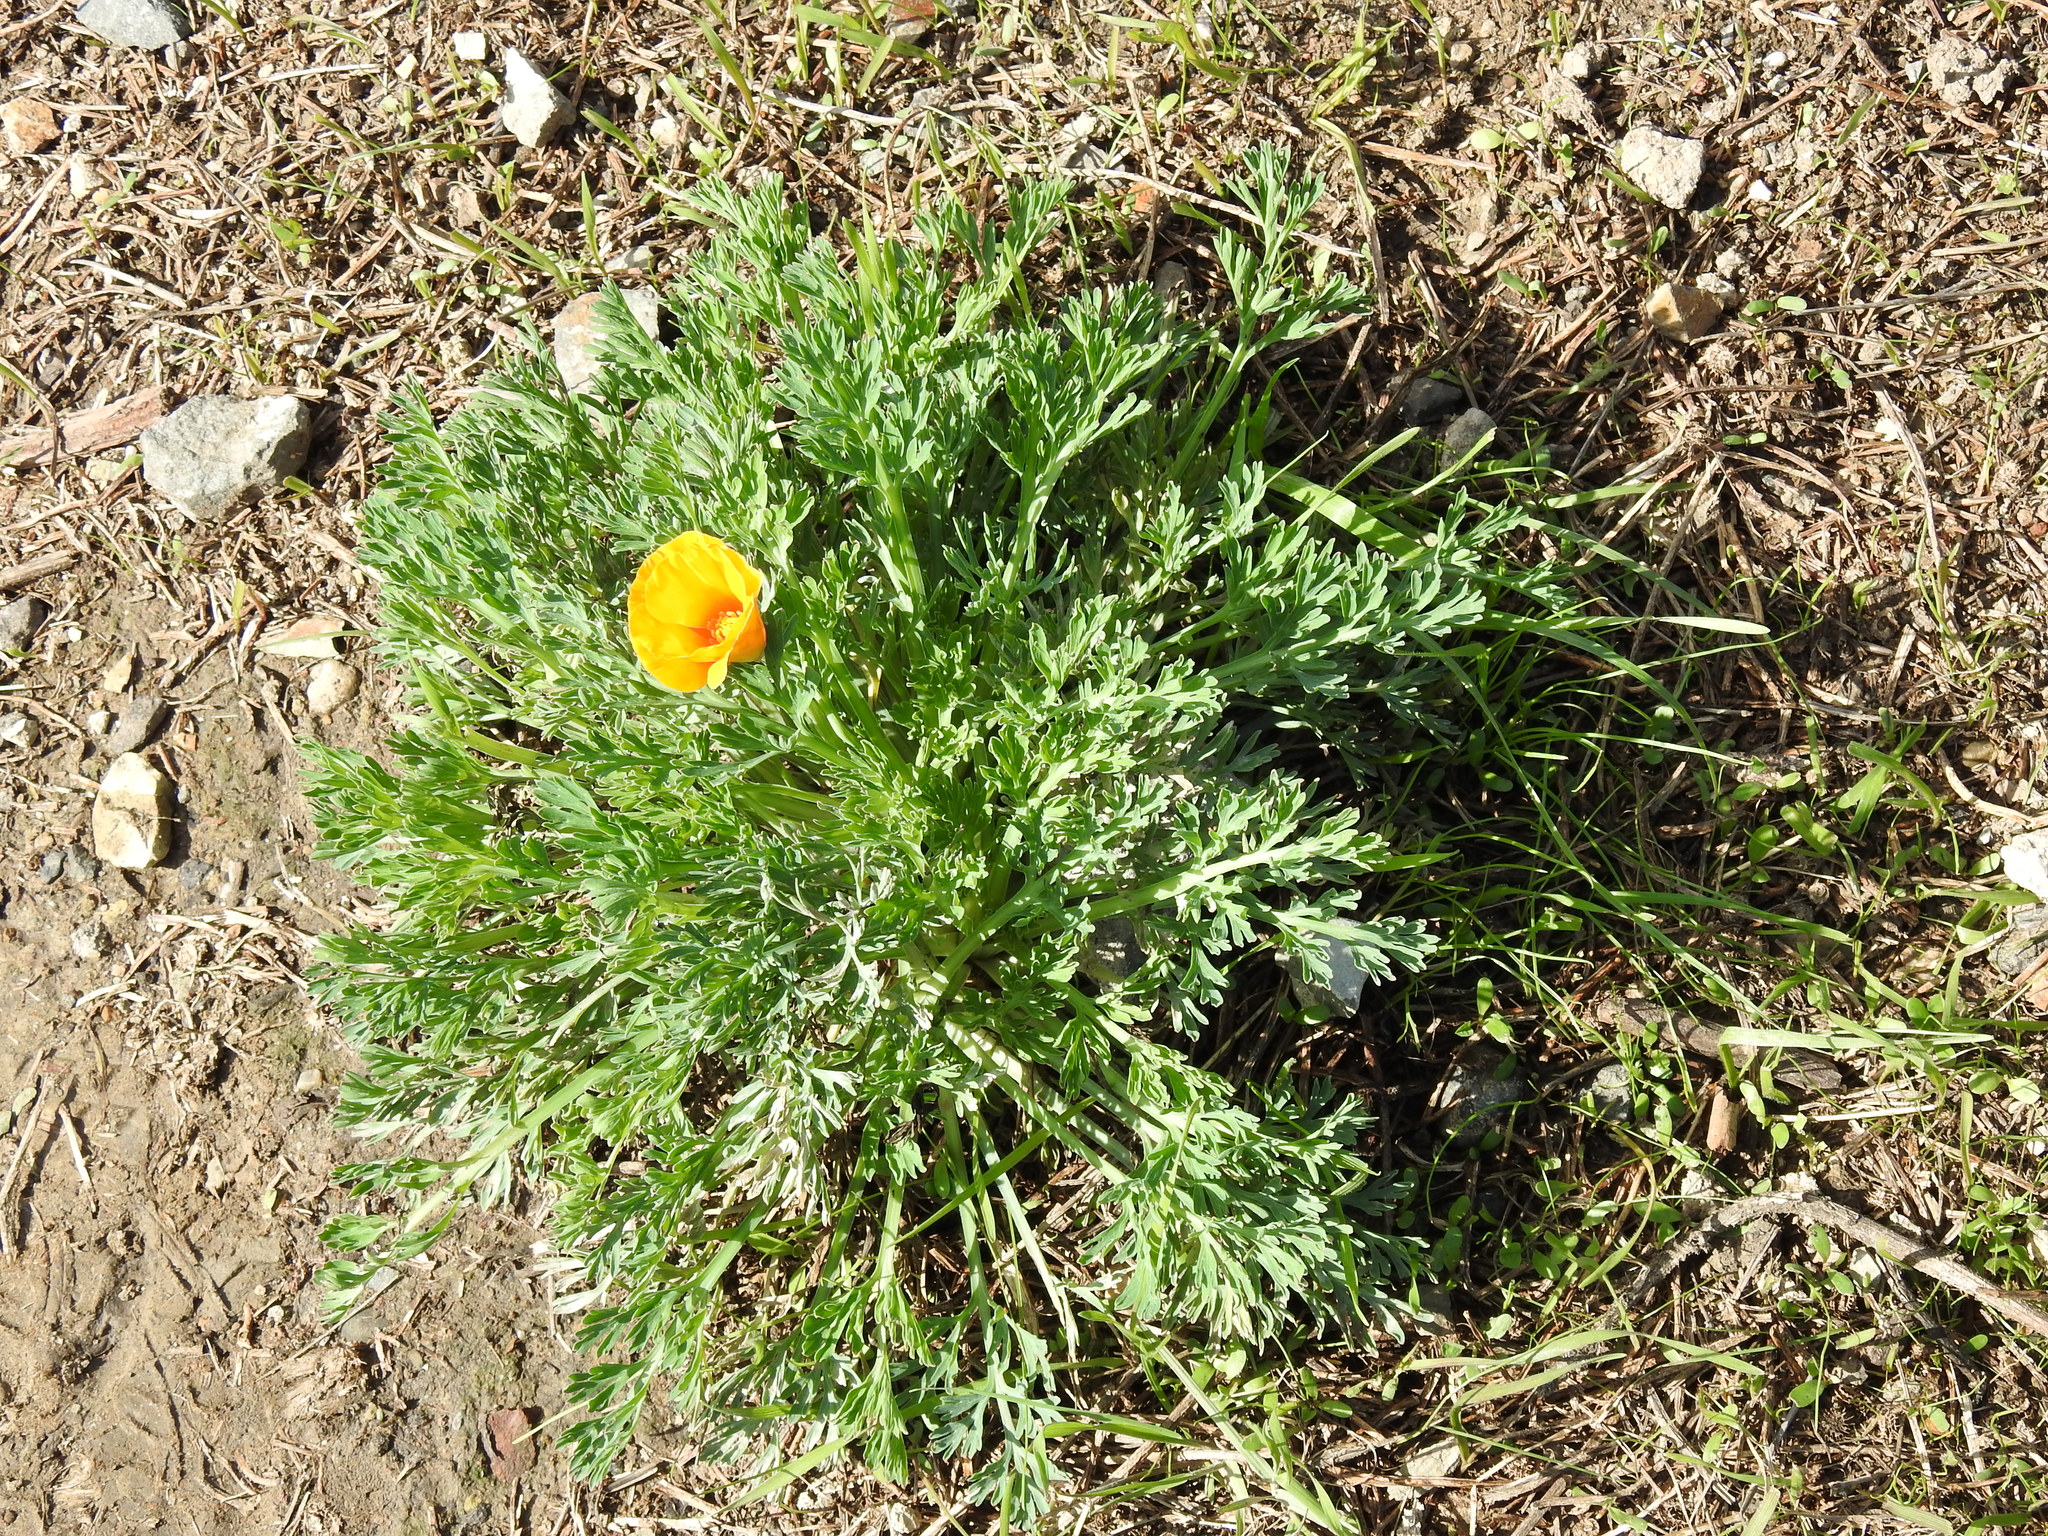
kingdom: Plantae
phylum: Tracheophyta
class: Magnoliopsida
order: Ranunculales
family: Papaveraceae
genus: Eschscholzia
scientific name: Eschscholzia californica
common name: California poppy
